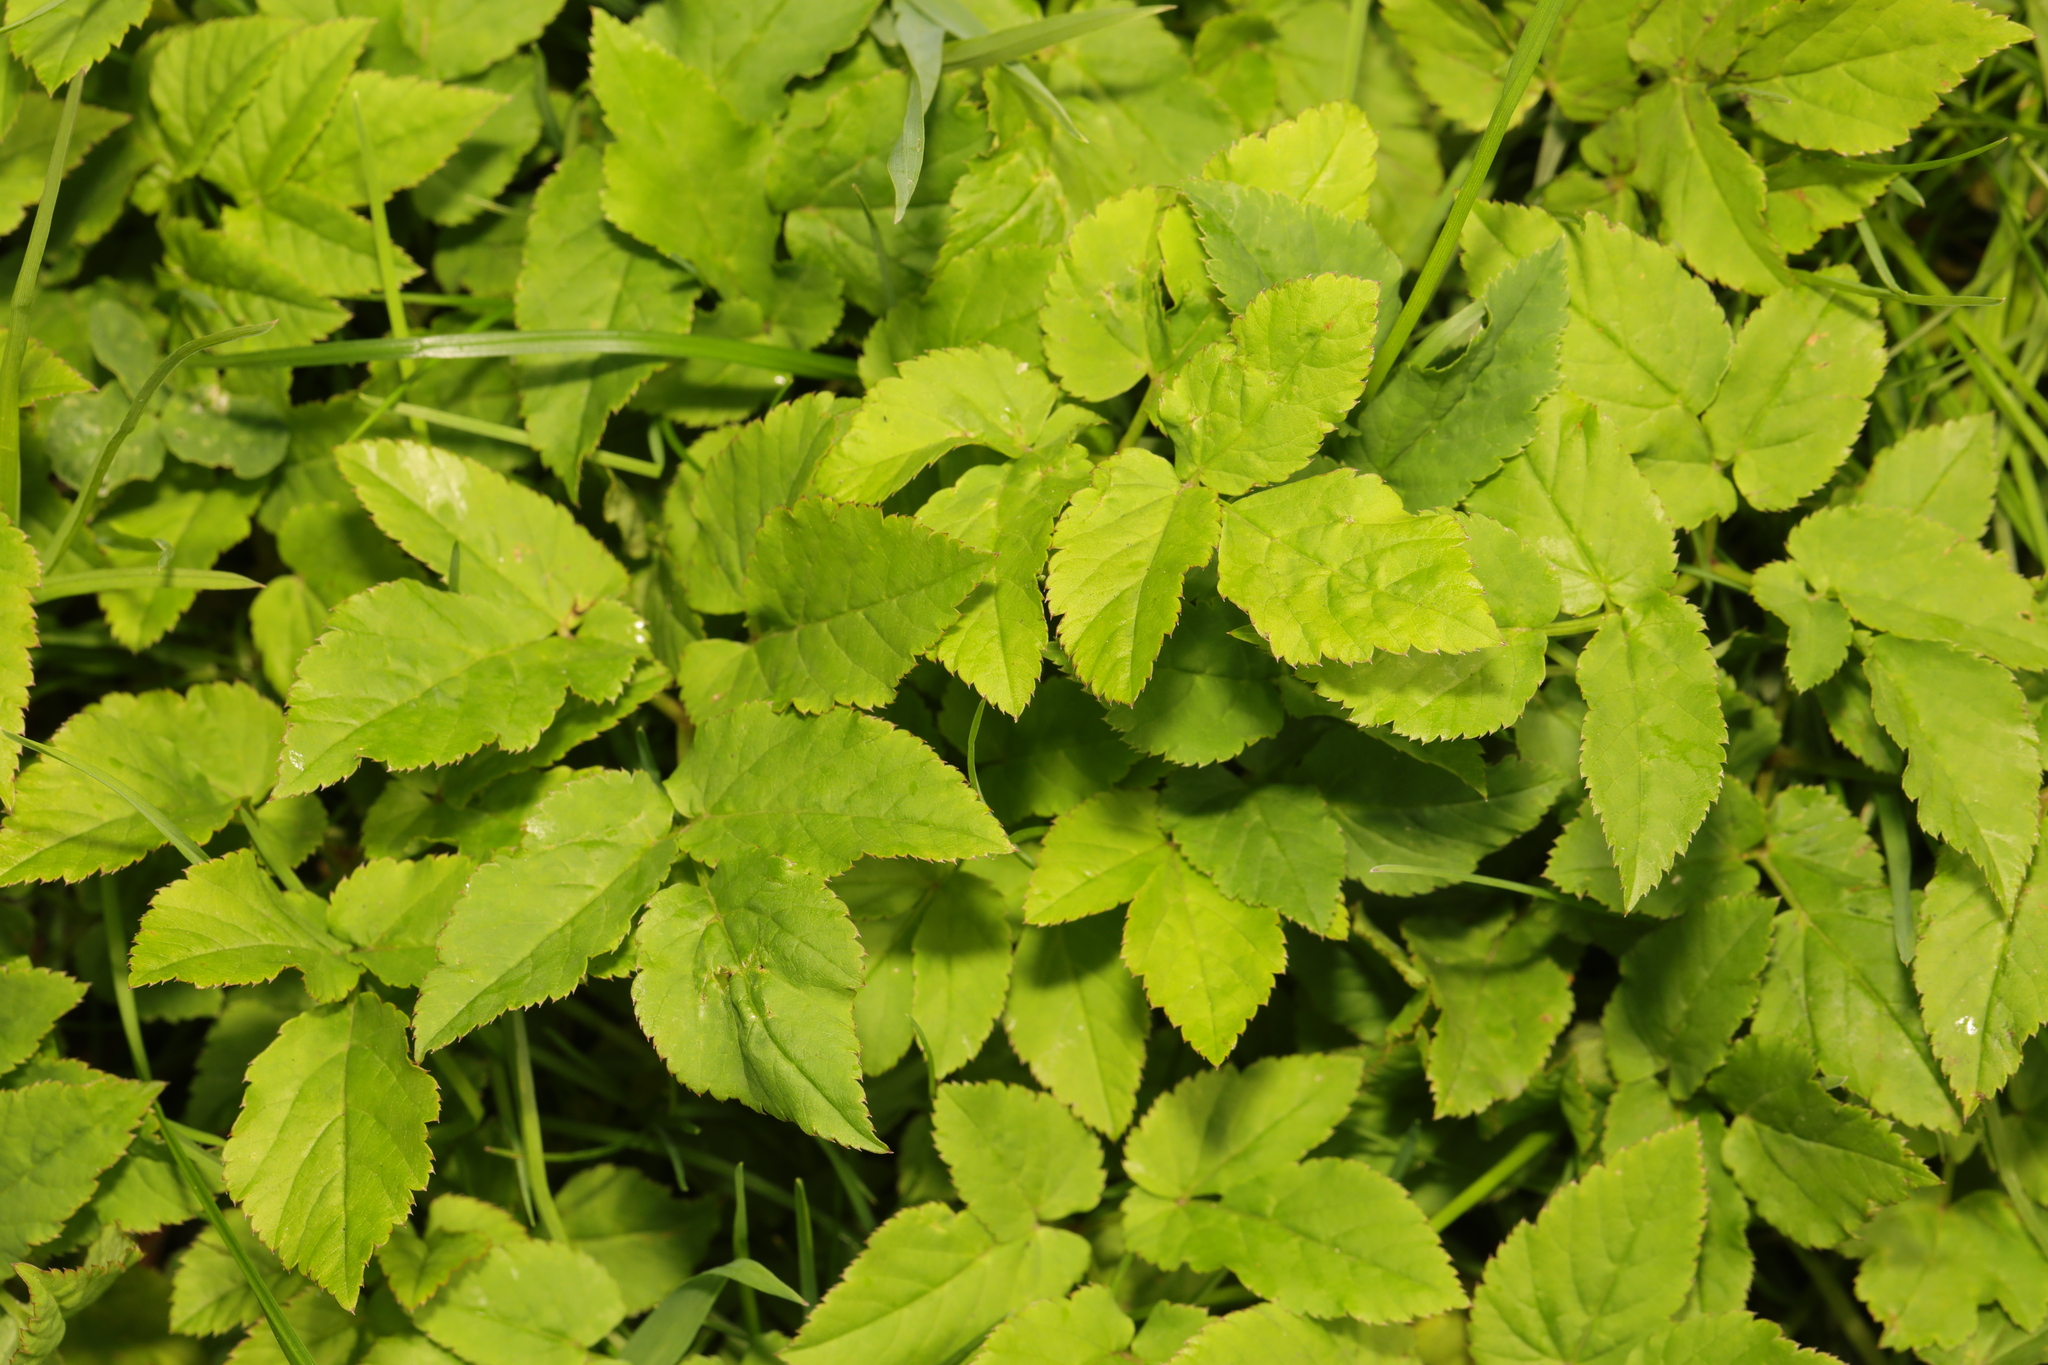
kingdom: Plantae
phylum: Tracheophyta
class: Magnoliopsida
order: Apiales
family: Apiaceae
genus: Aegopodium
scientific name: Aegopodium podagraria
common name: Ground-elder
